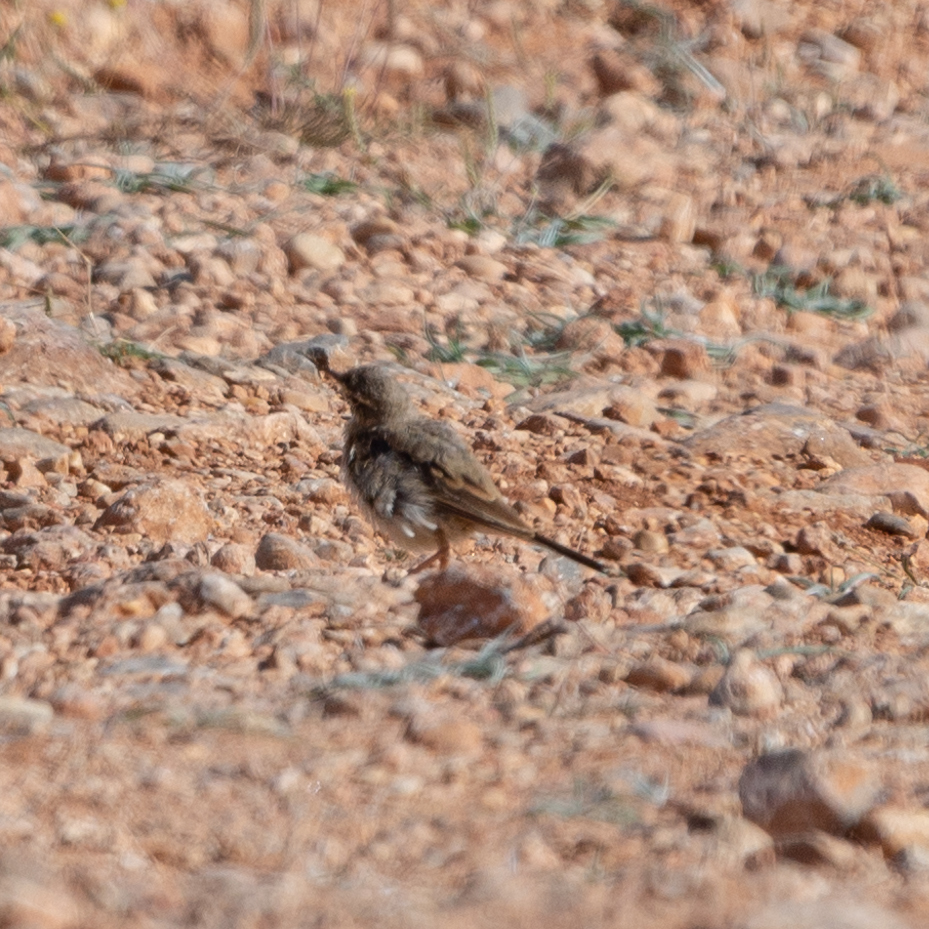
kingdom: Animalia
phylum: Chordata
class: Aves
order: Passeriformes
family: Motacillidae
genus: Anthus
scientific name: Anthus campestris
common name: Tawny pipit
